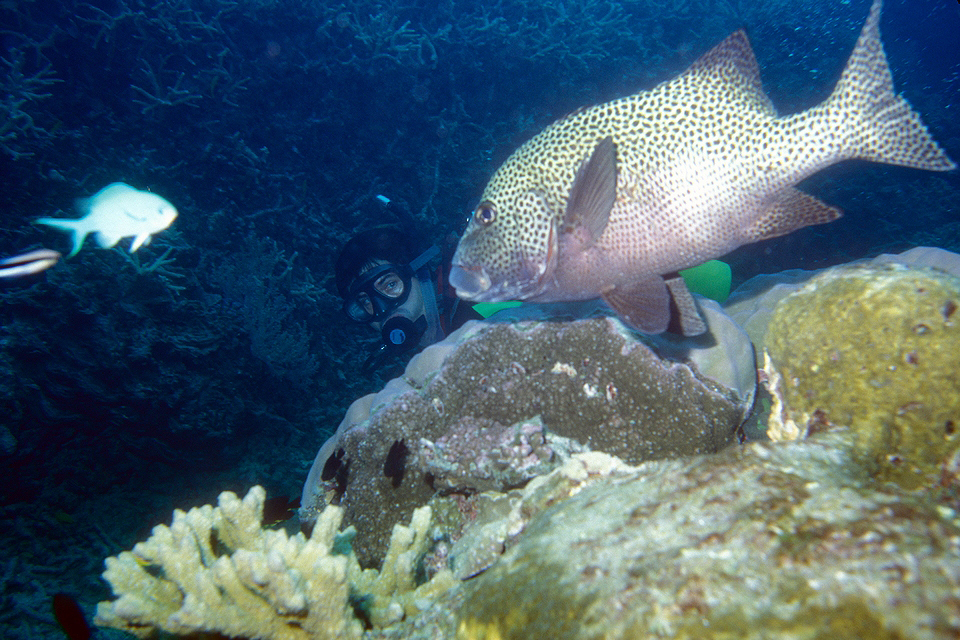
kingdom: Animalia
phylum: Chordata
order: Perciformes
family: Haemulidae
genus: Plectorhinchus
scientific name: Plectorhinchus chaetodonoides
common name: Harlequin sweetlips
